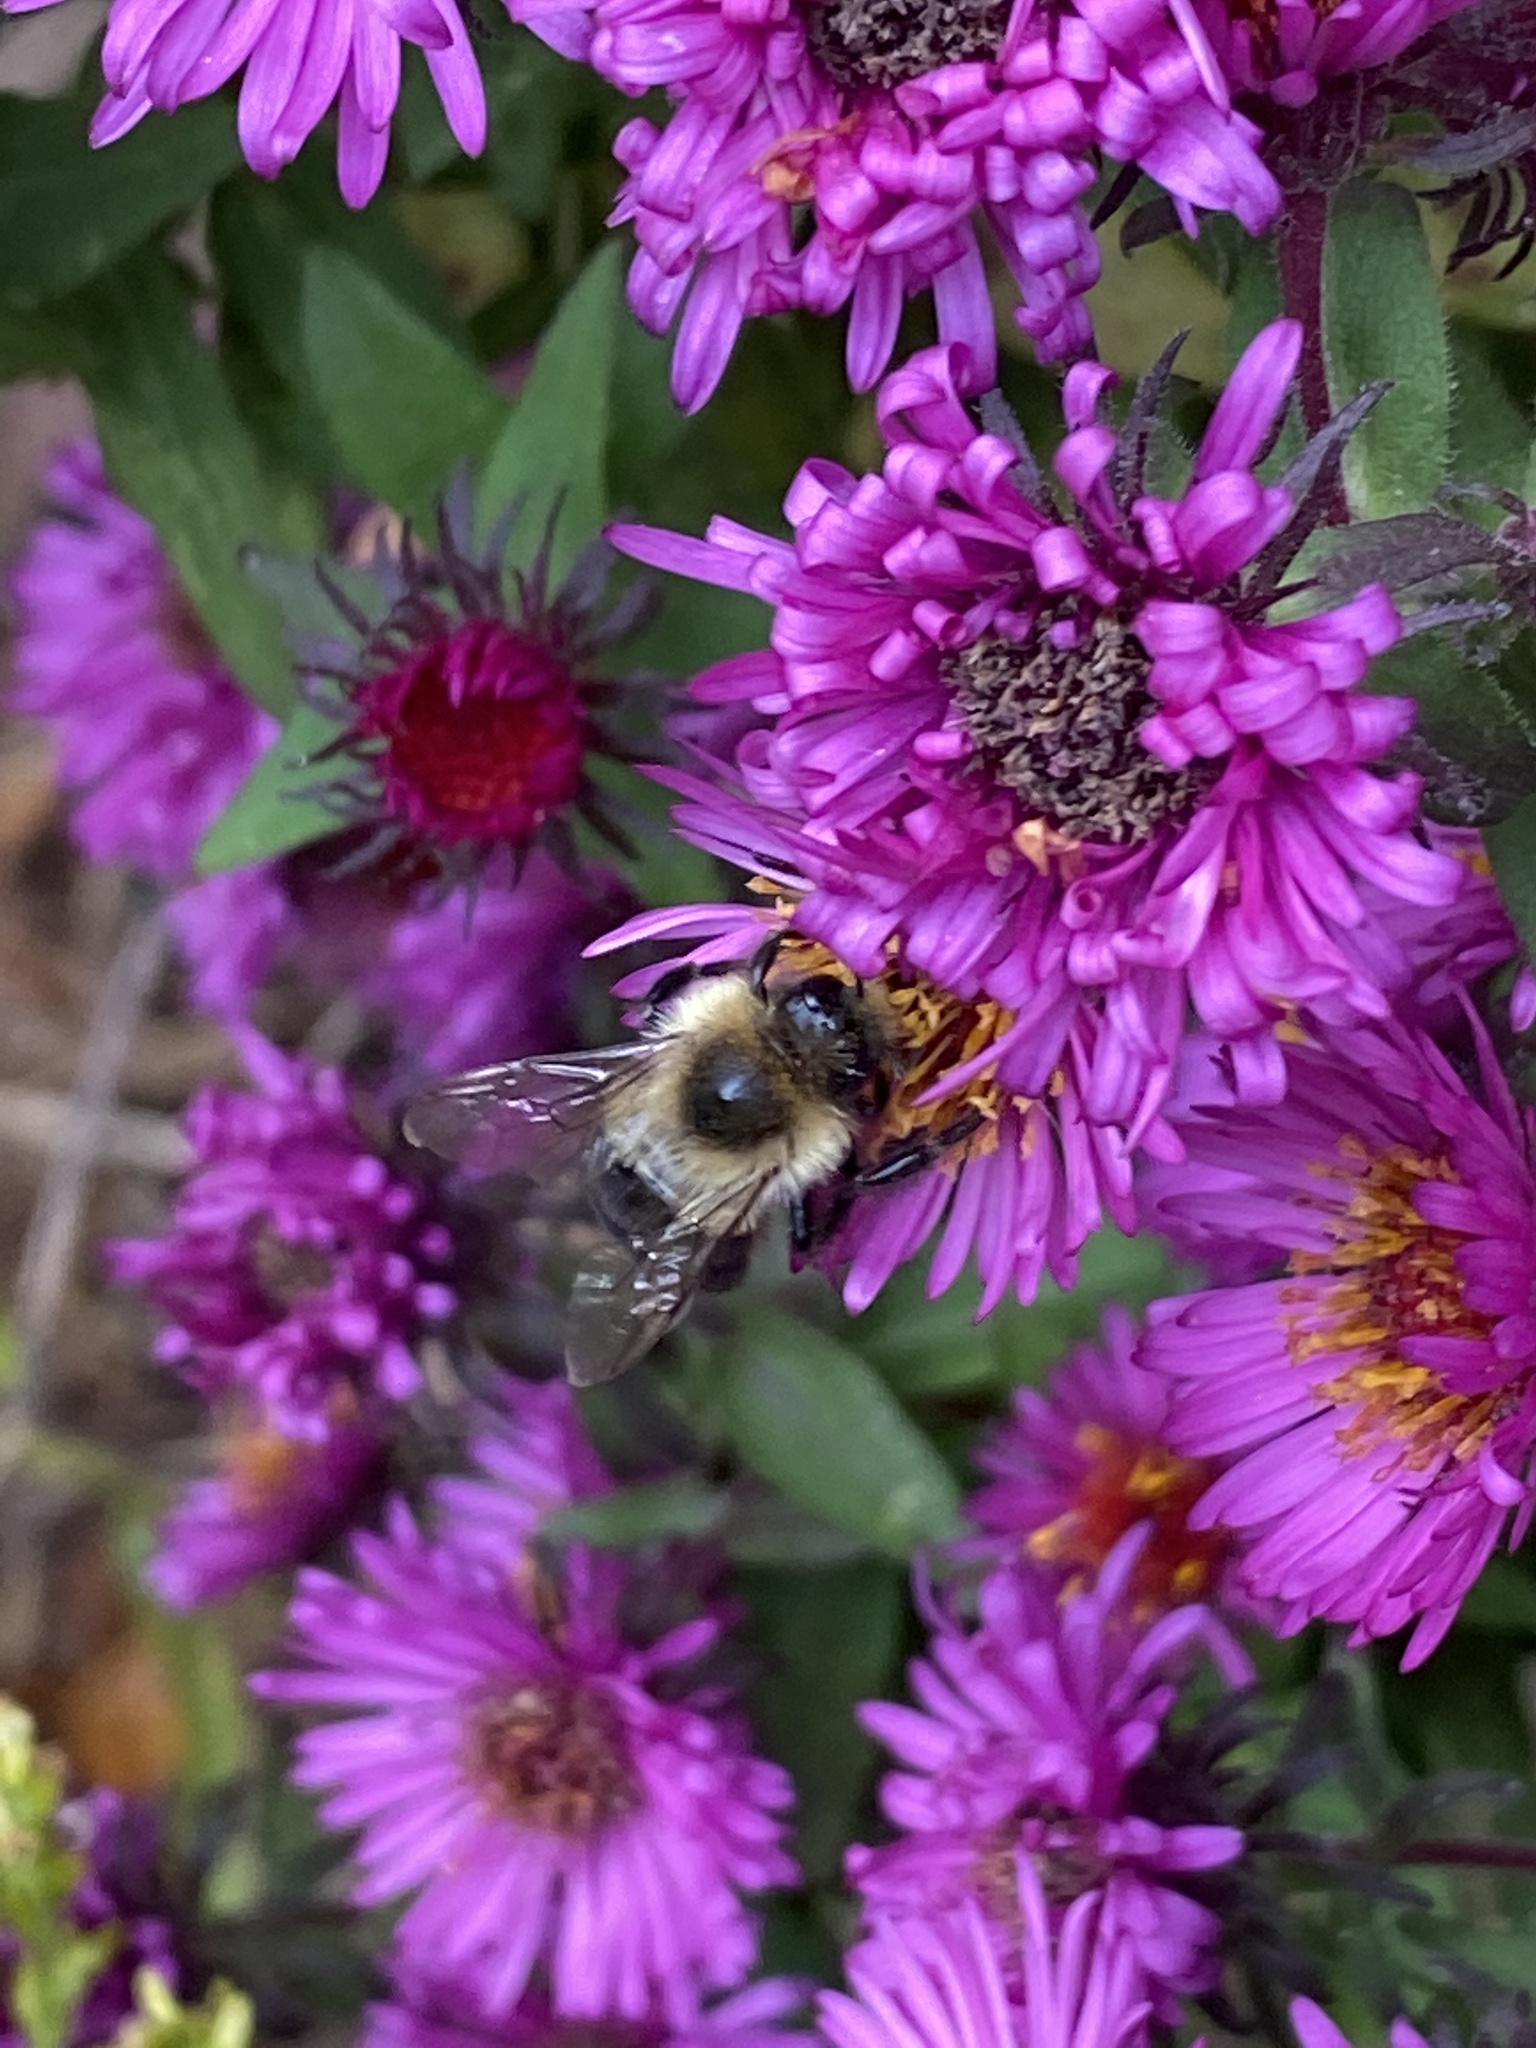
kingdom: Animalia
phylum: Arthropoda
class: Insecta
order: Hymenoptera
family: Apidae
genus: Bombus
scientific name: Bombus impatiens
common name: Common eastern bumble bee
